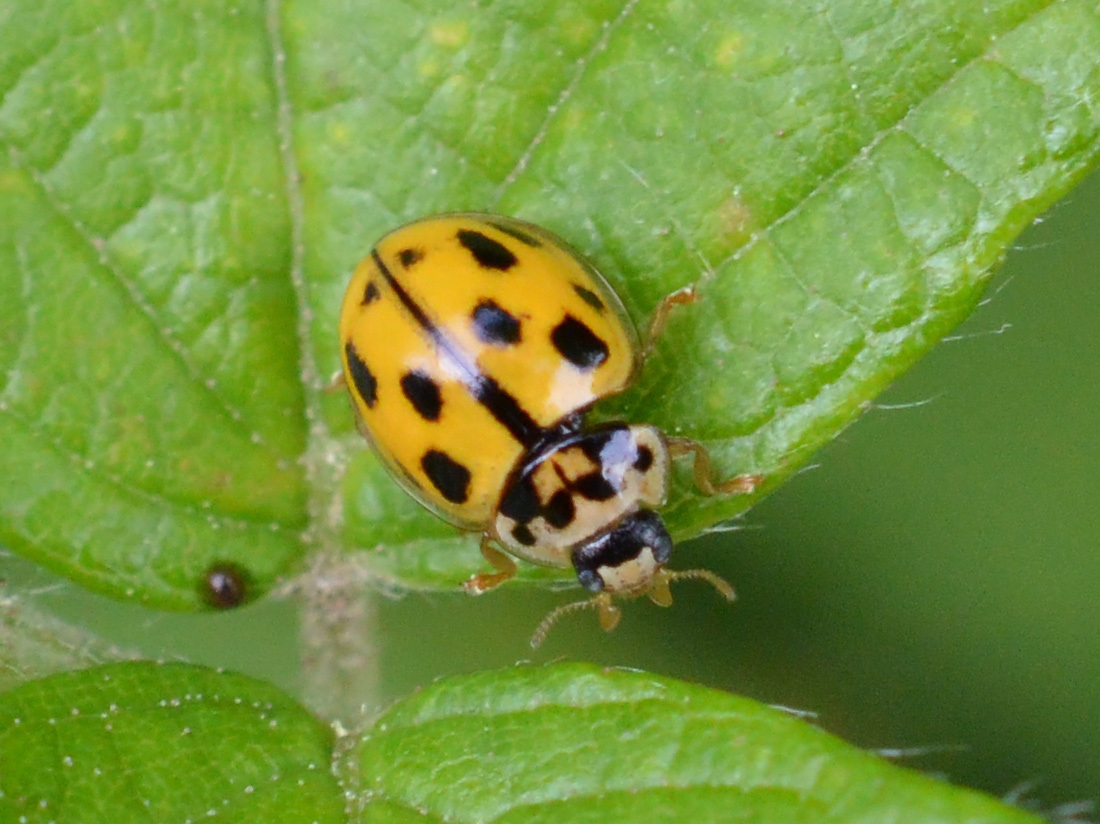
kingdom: Animalia
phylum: Arthropoda
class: Insecta
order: Coleoptera
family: Coccinellidae
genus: Propylaea
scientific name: Propylaea quatuordecimpunctata
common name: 14-spotted ladybird beetle
